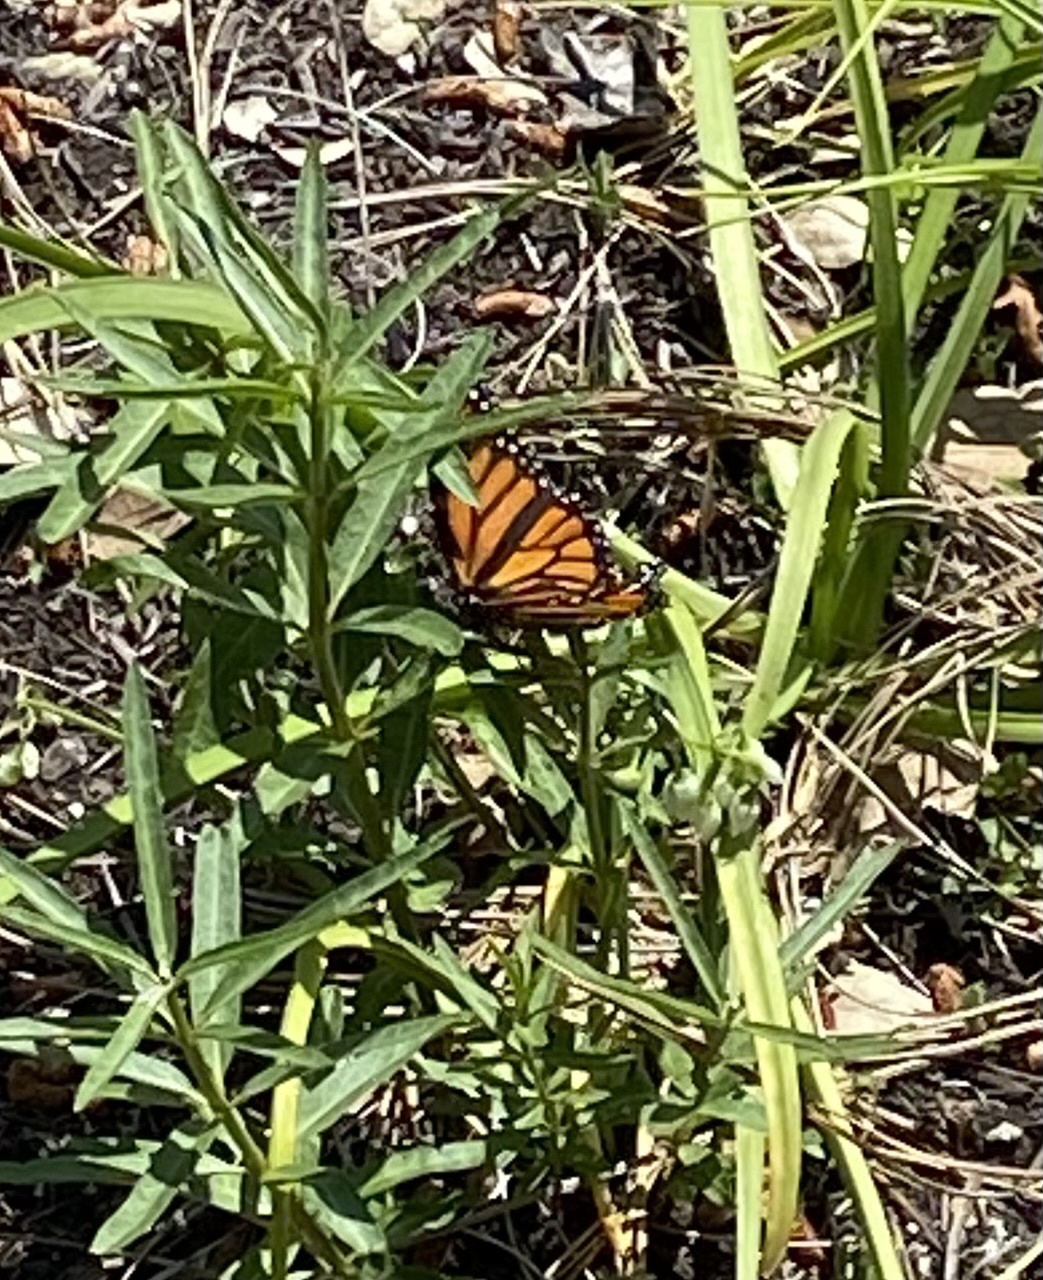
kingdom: Animalia
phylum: Arthropoda
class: Insecta
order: Lepidoptera
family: Nymphalidae
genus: Danaus
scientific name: Danaus plexippus
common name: Monarch
